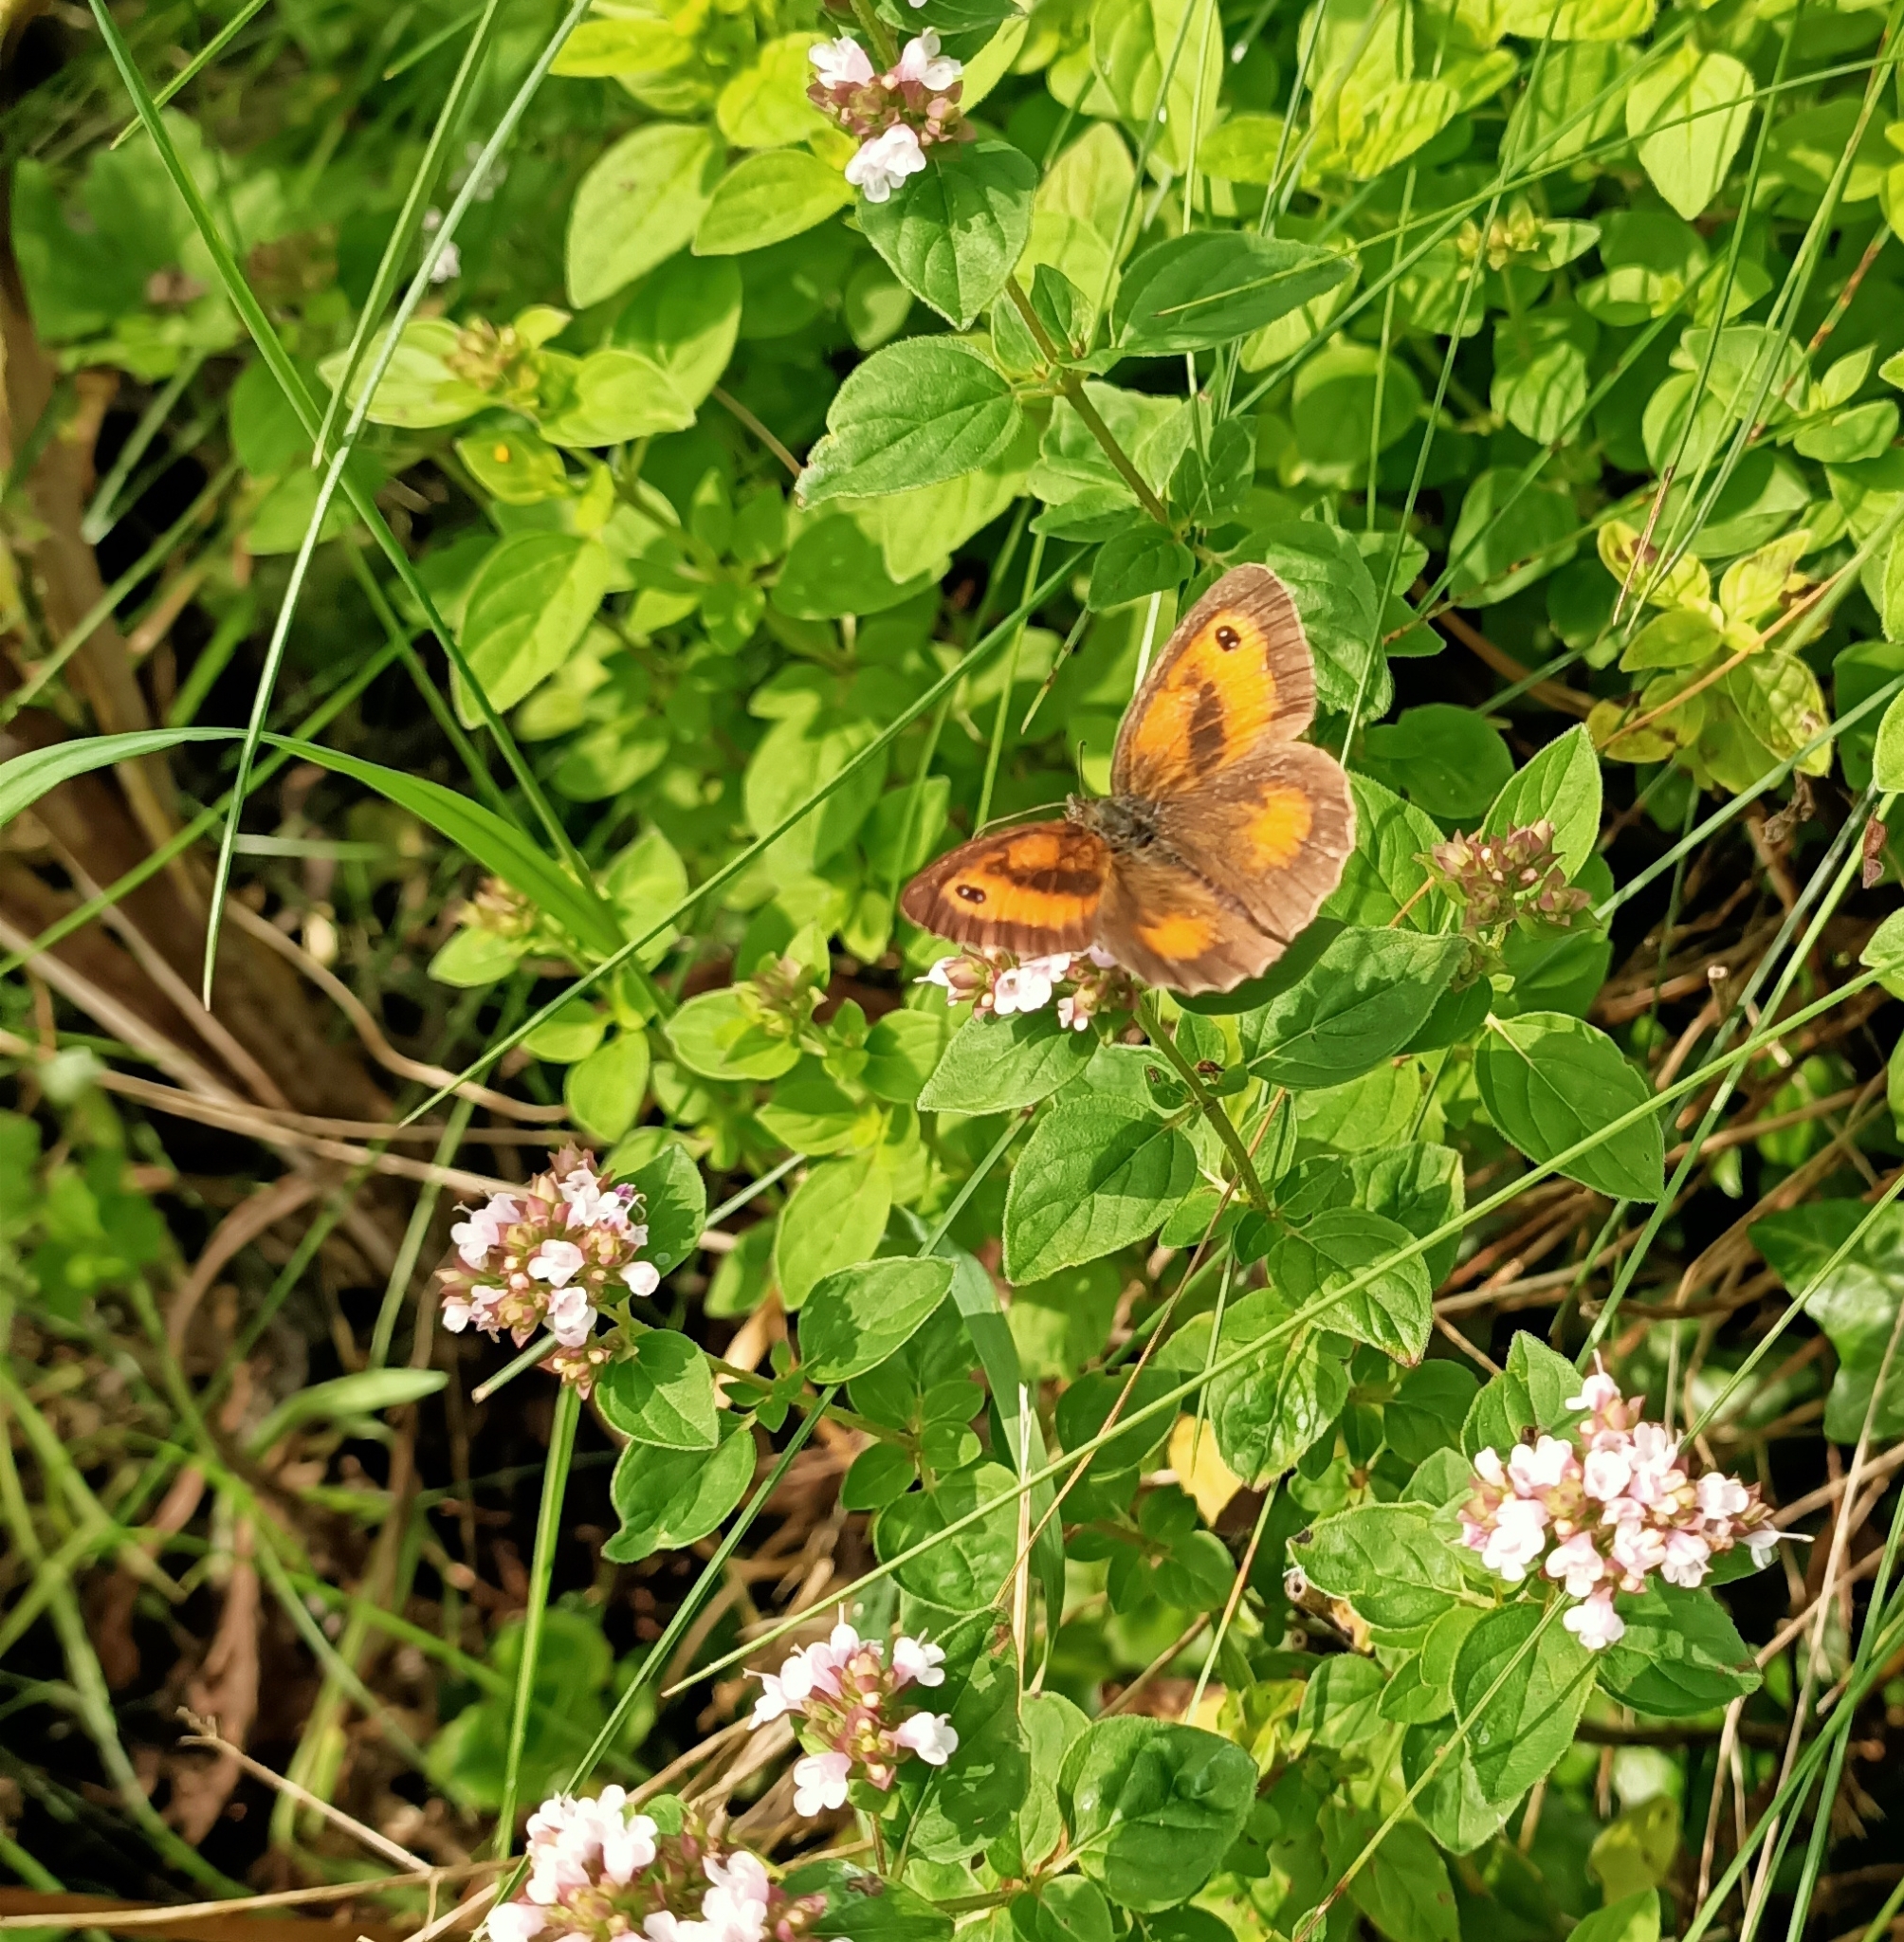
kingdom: Animalia
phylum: Arthropoda
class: Insecta
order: Lepidoptera
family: Nymphalidae
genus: Pyronia
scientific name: Pyronia tithonus
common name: Gatekeeper
